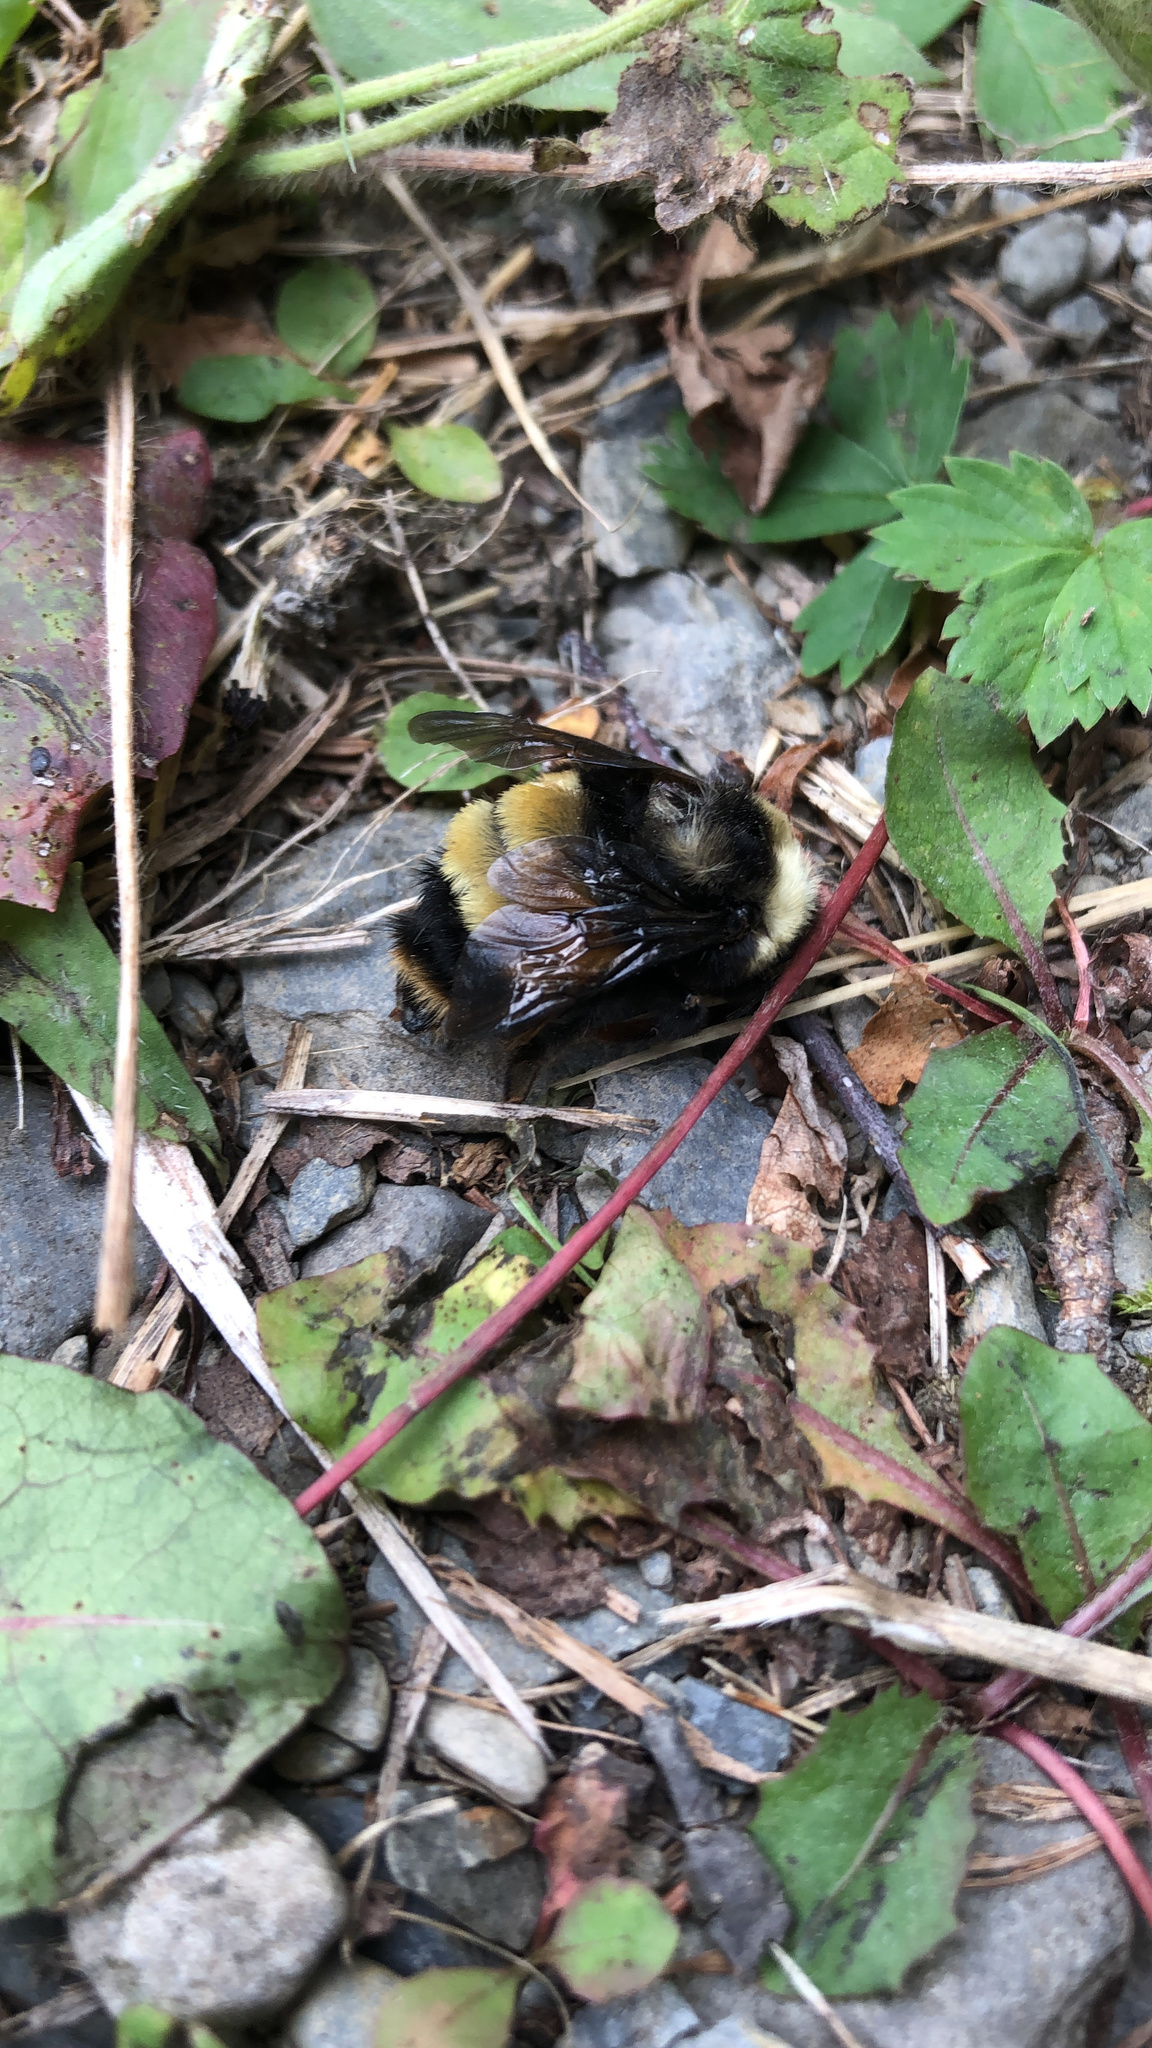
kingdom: Animalia
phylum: Arthropoda
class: Insecta
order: Hymenoptera
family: Apidae
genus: Bombus
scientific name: Bombus terricola
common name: Yellow-banded bumble bee
